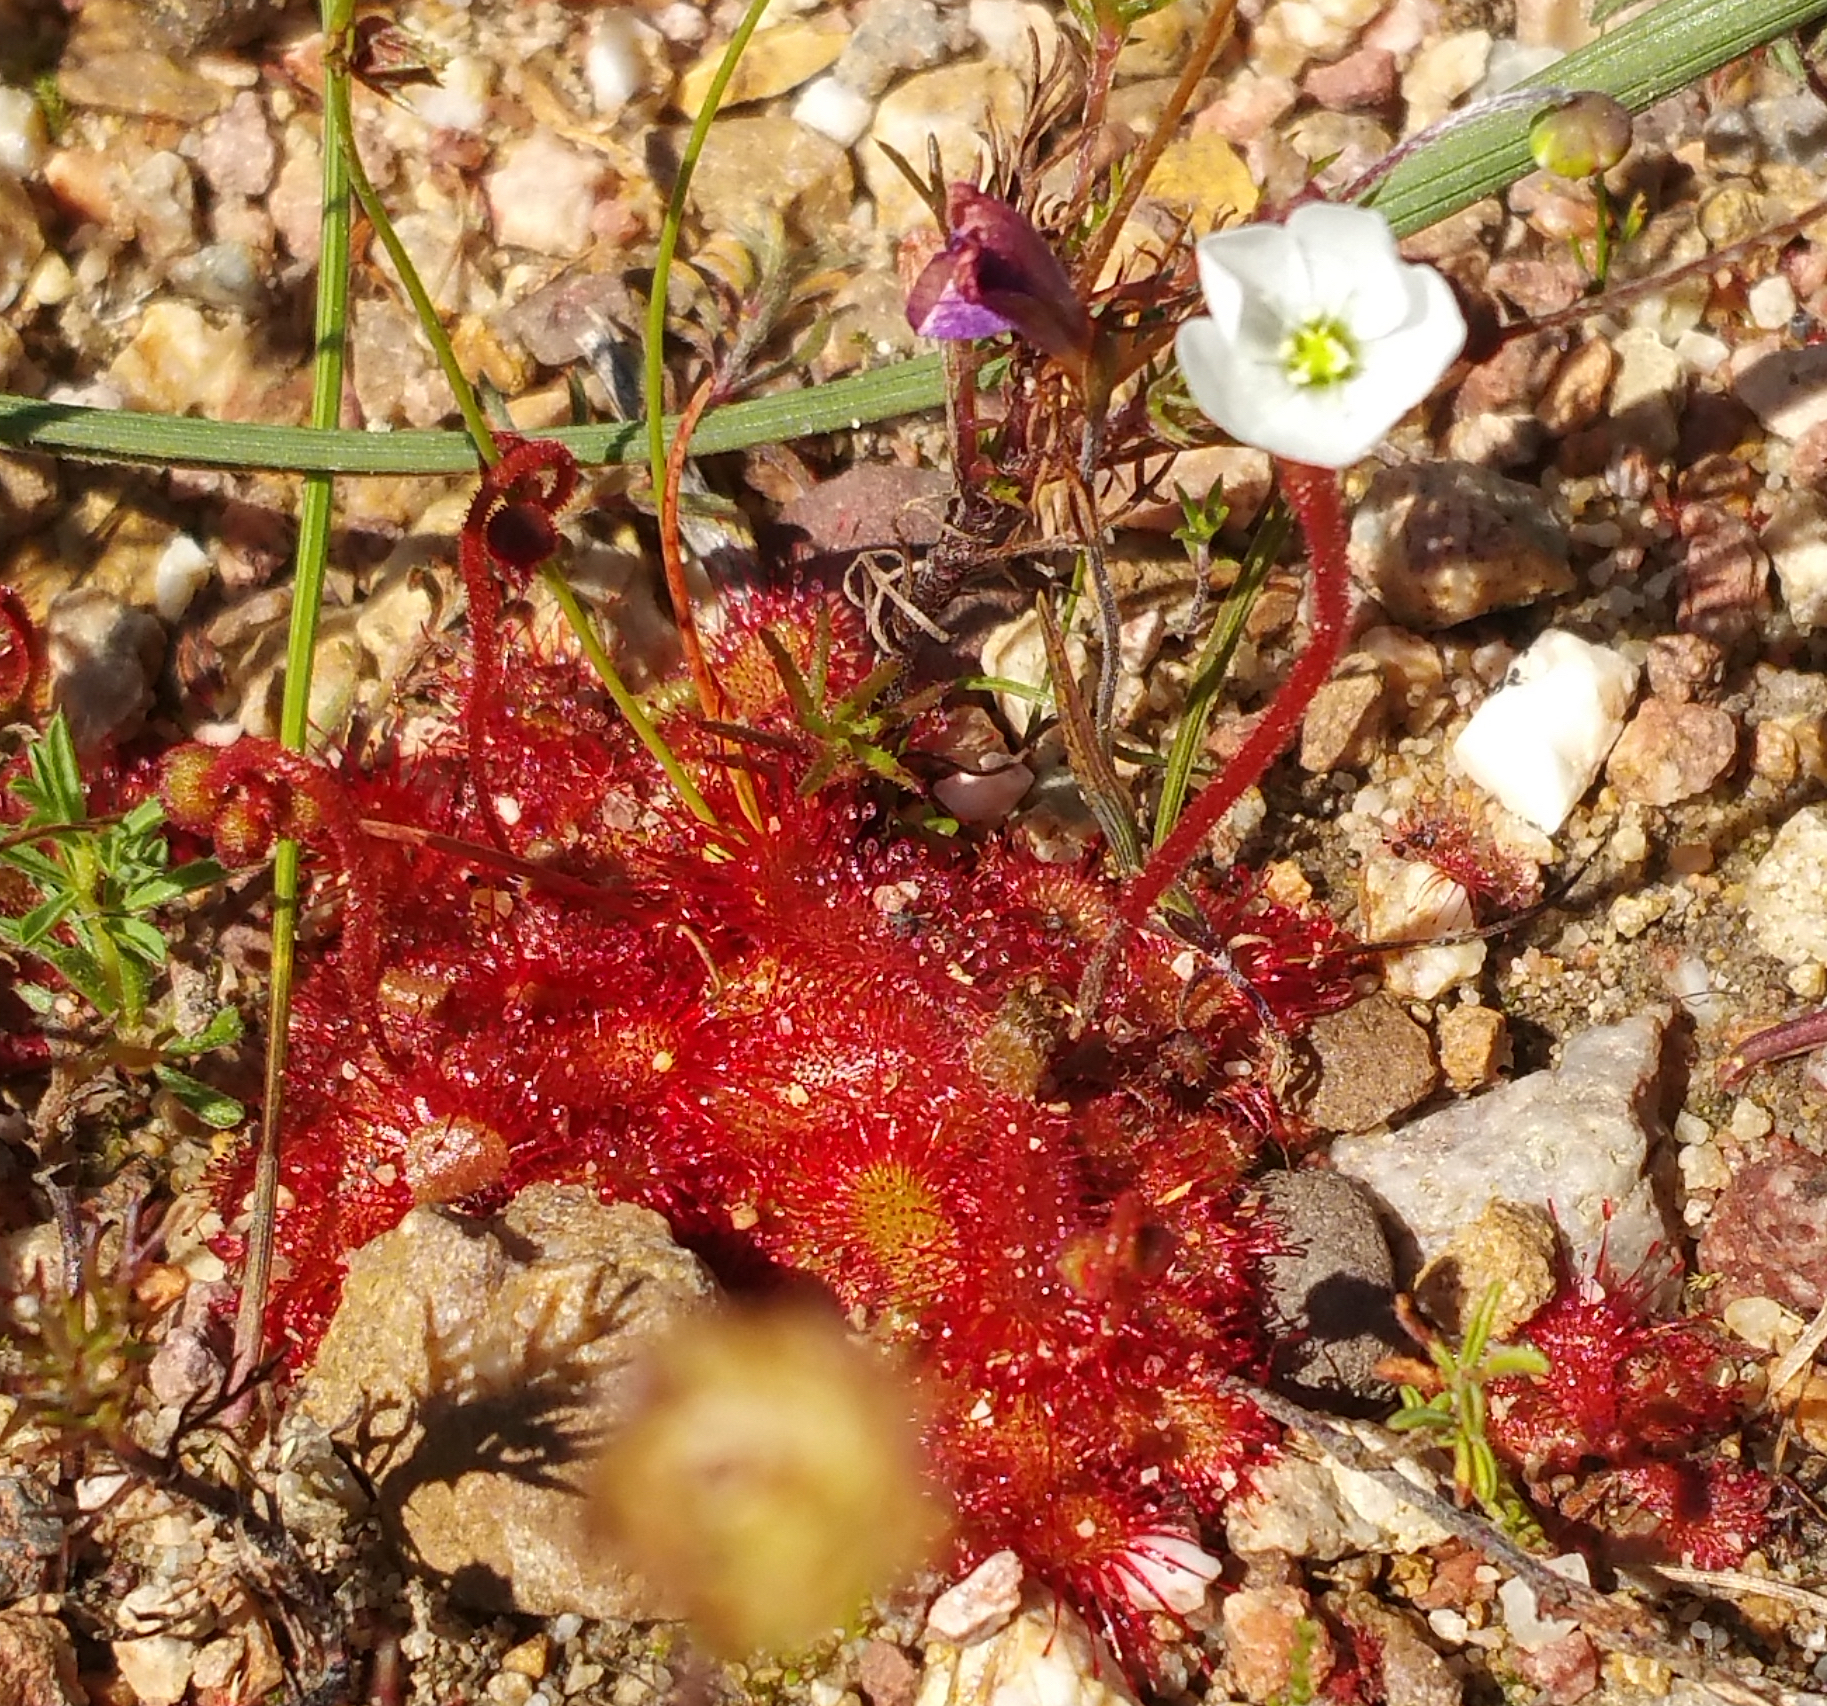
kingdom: Plantae
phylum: Tracheophyta
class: Magnoliopsida
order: Caryophyllales
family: Droseraceae
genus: Drosera
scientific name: Drosera trinervia
